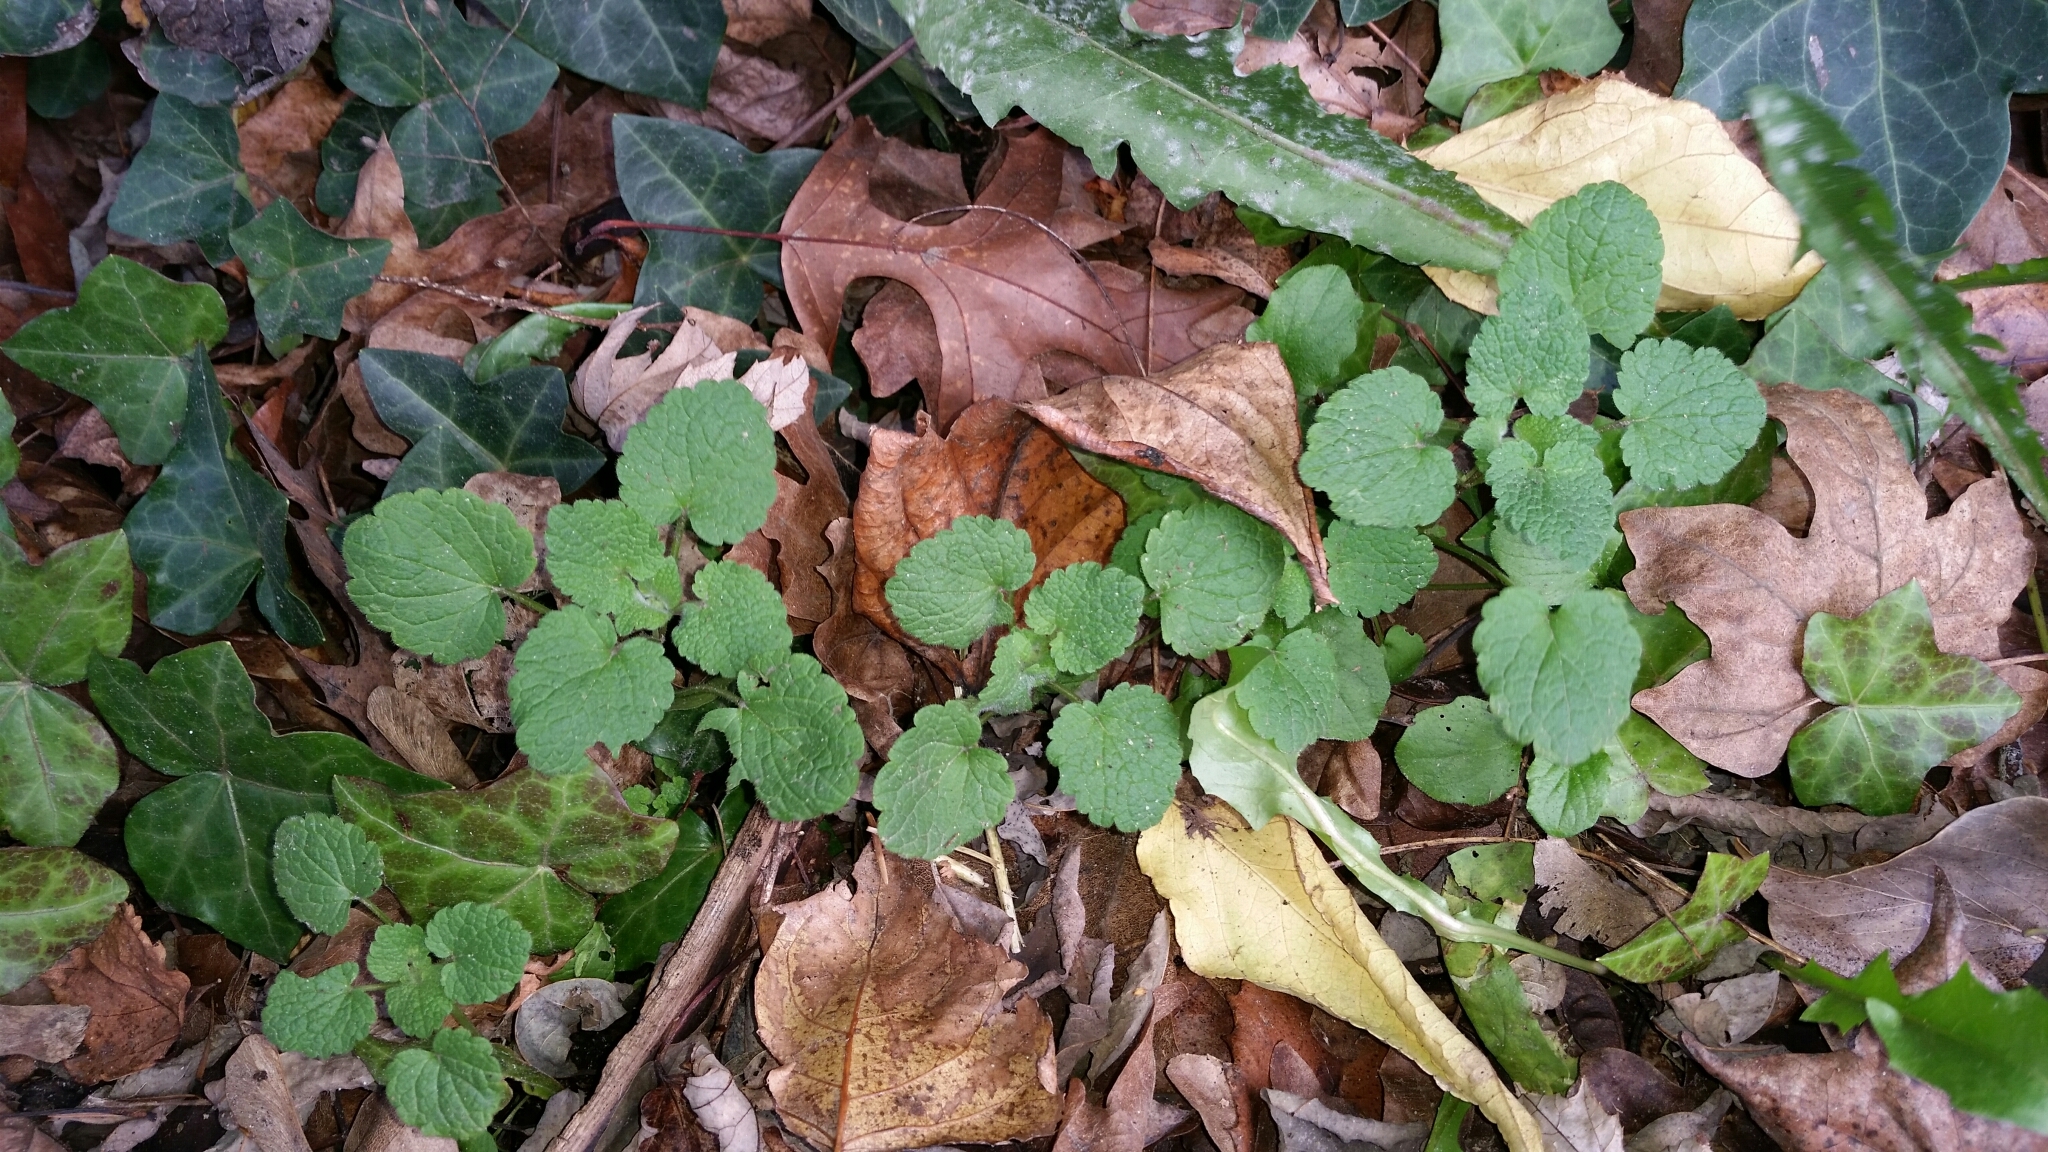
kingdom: Plantae
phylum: Tracheophyta
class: Magnoliopsida
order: Lamiales
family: Lamiaceae
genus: Lamium
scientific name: Lamium purpureum
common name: Red dead-nettle
